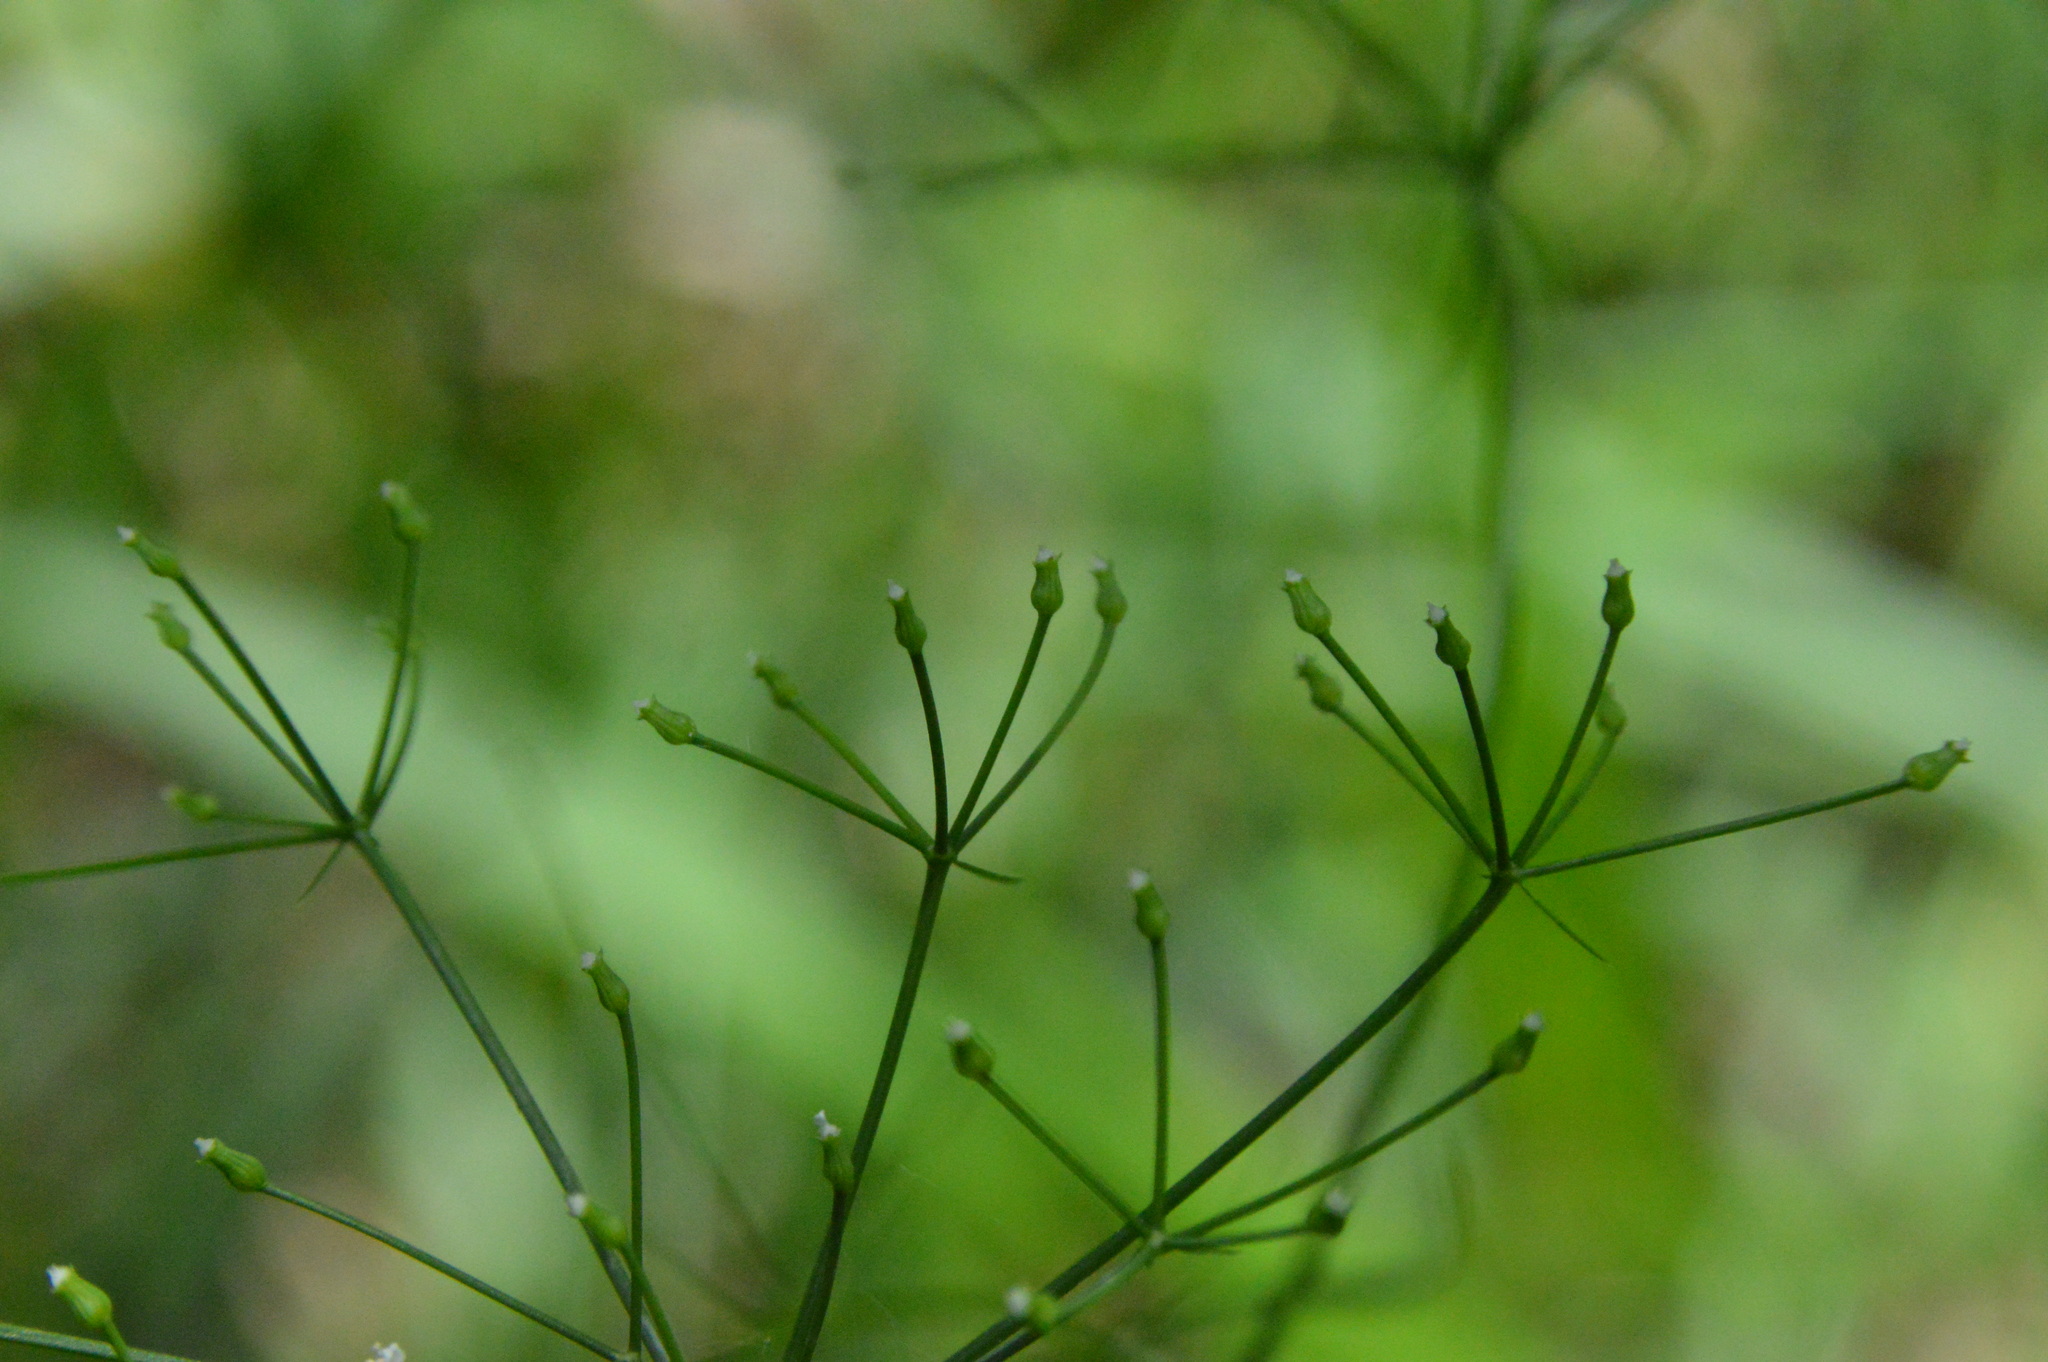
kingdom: Plantae
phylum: Tracheophyta
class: Magnoliopsida
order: Apiales
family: Apiaceae
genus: Cynosciadium
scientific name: Cynosciadium digitatum
